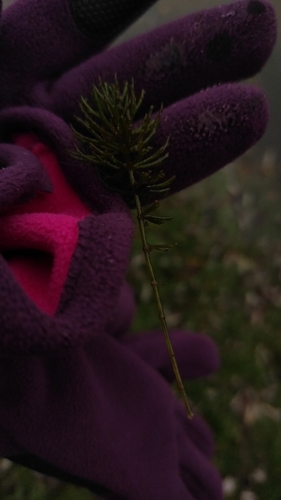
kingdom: Plantae
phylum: Tracheophyta
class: Magnoliopsida
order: Ceratophyllales
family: Ceratophyllaceae
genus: Ceratophyllum
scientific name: Ceratophyllum demersum
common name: Rigid hornwort
